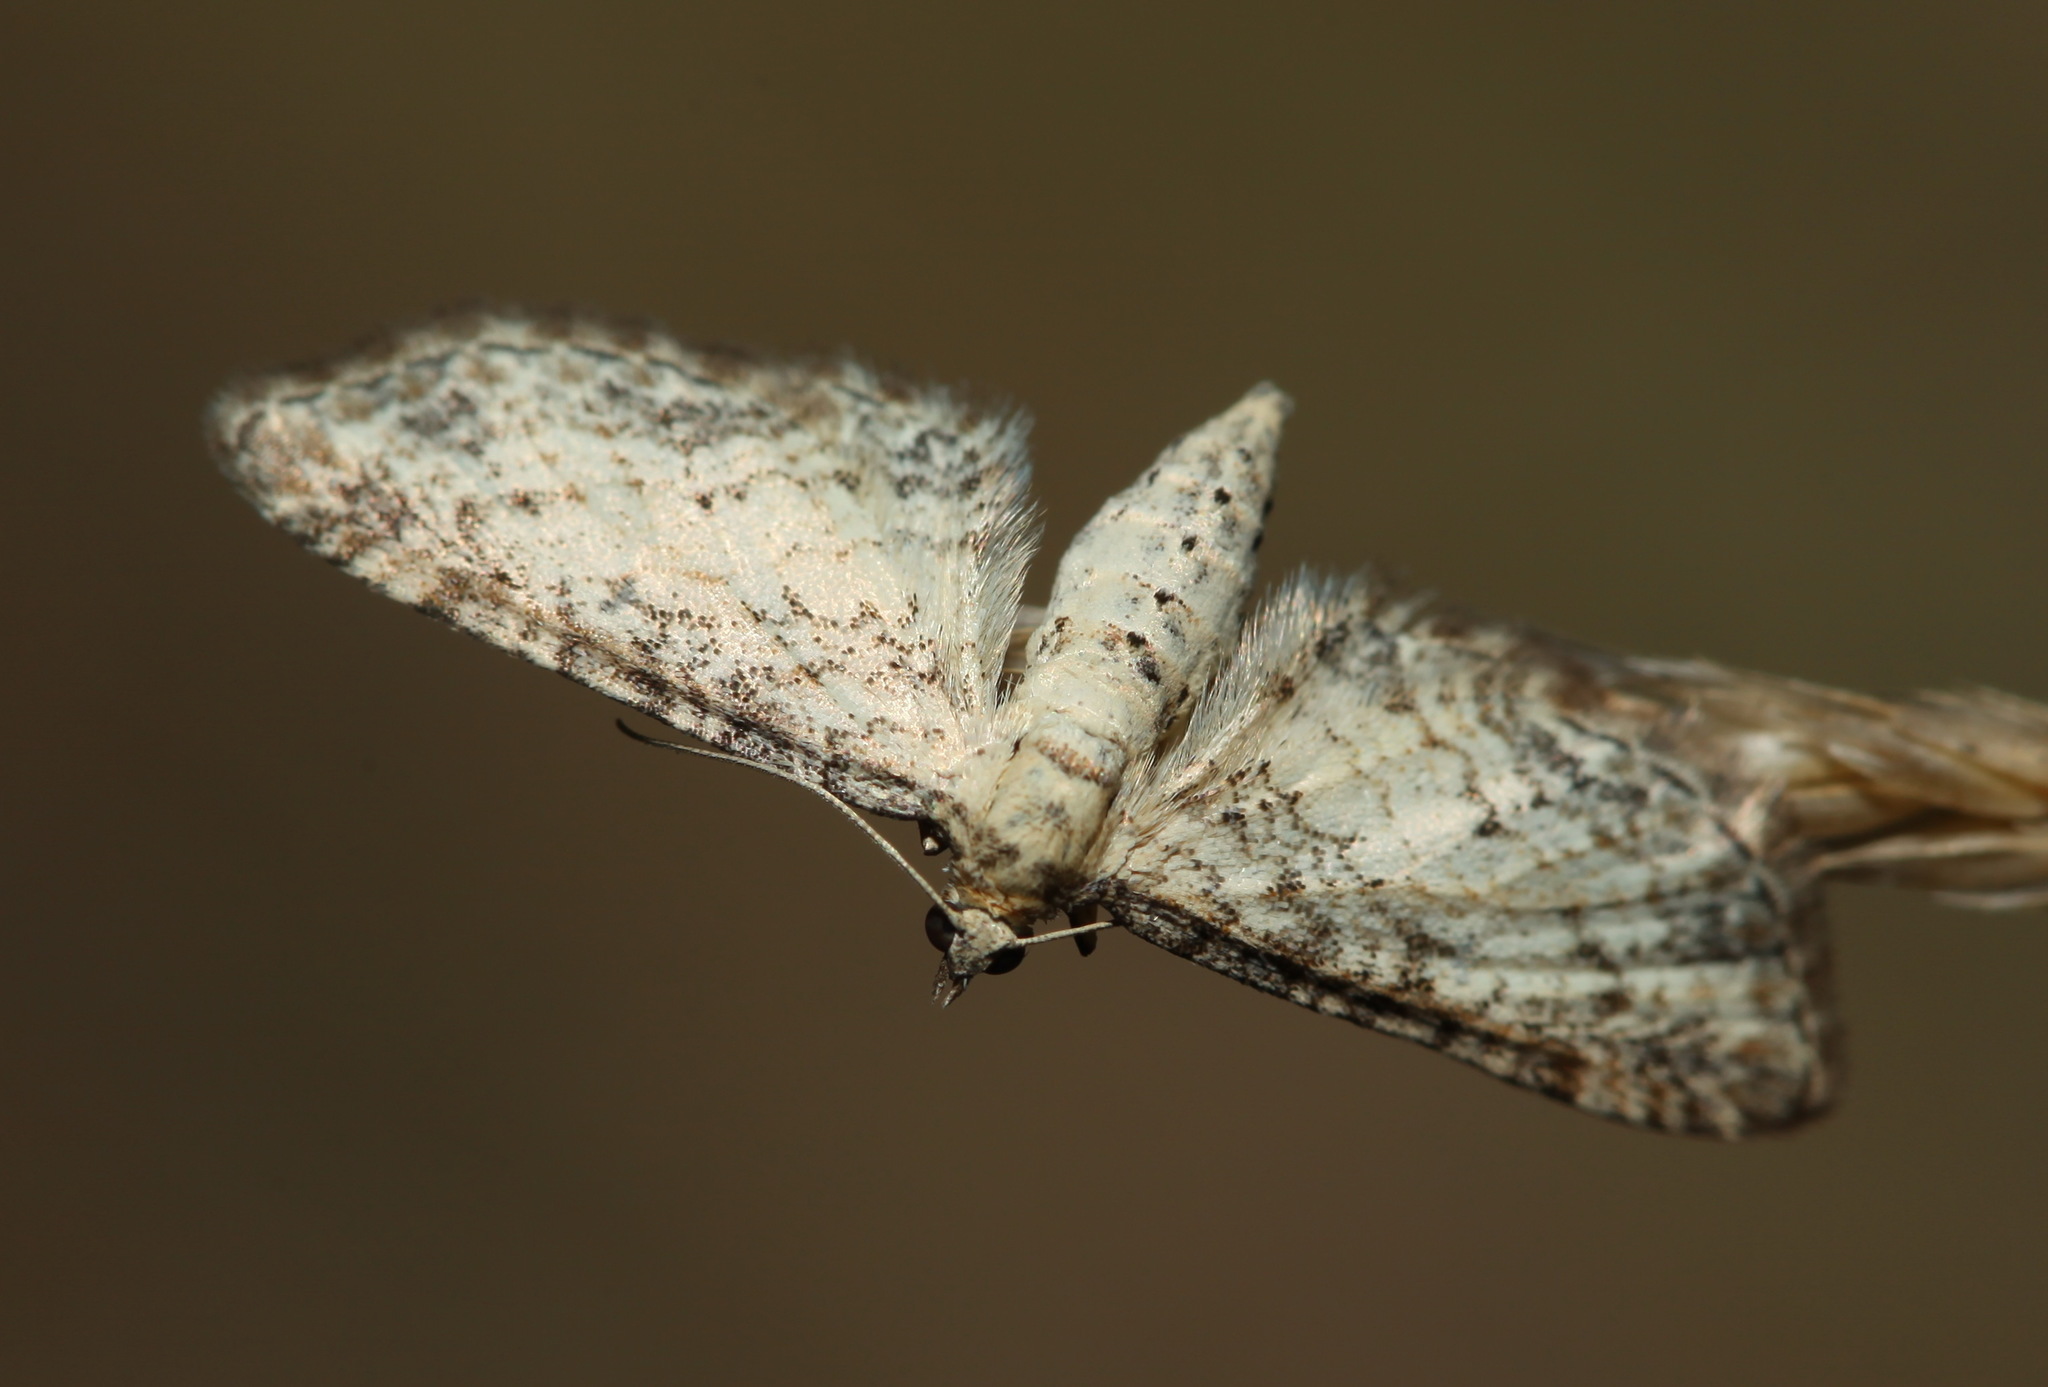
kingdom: Animalia
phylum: Arthropoda
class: Insecta
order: Lepidoptera
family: Geometridae
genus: Eupithecia
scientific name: Eupithecia subumbrata
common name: Shaded pug
